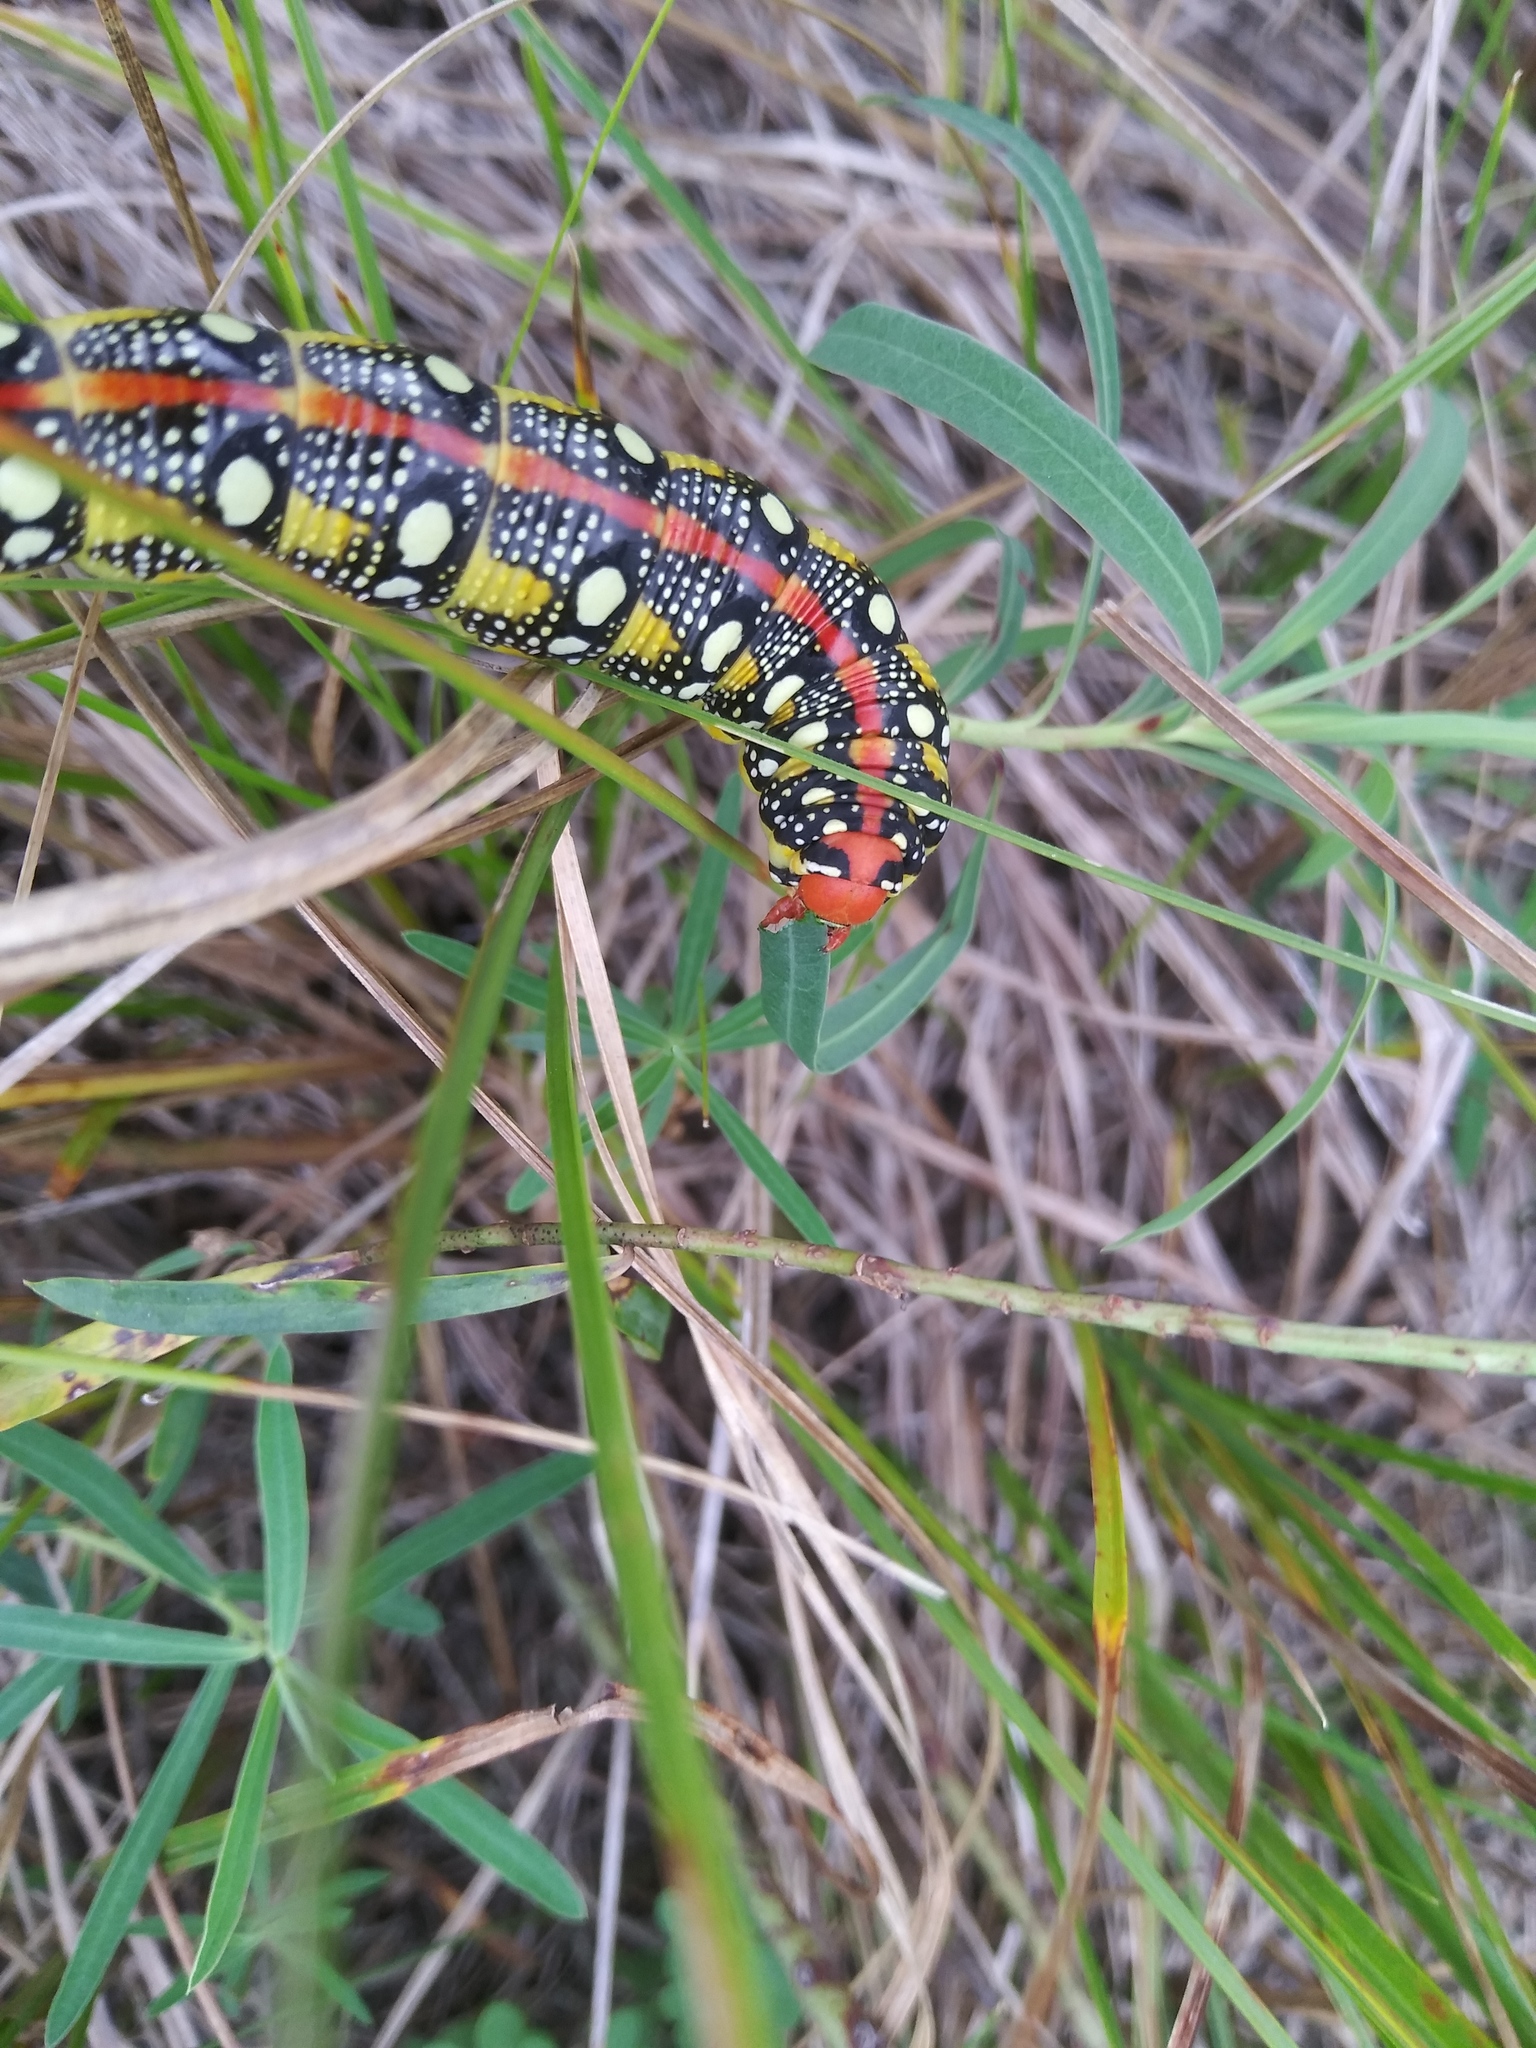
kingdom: Animalia
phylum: Arthropoda
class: Insecta
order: Lepidoptera
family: Sphingidae
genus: Hyles
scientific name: Hyles euphorbiae
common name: Spurge hawk-moth
